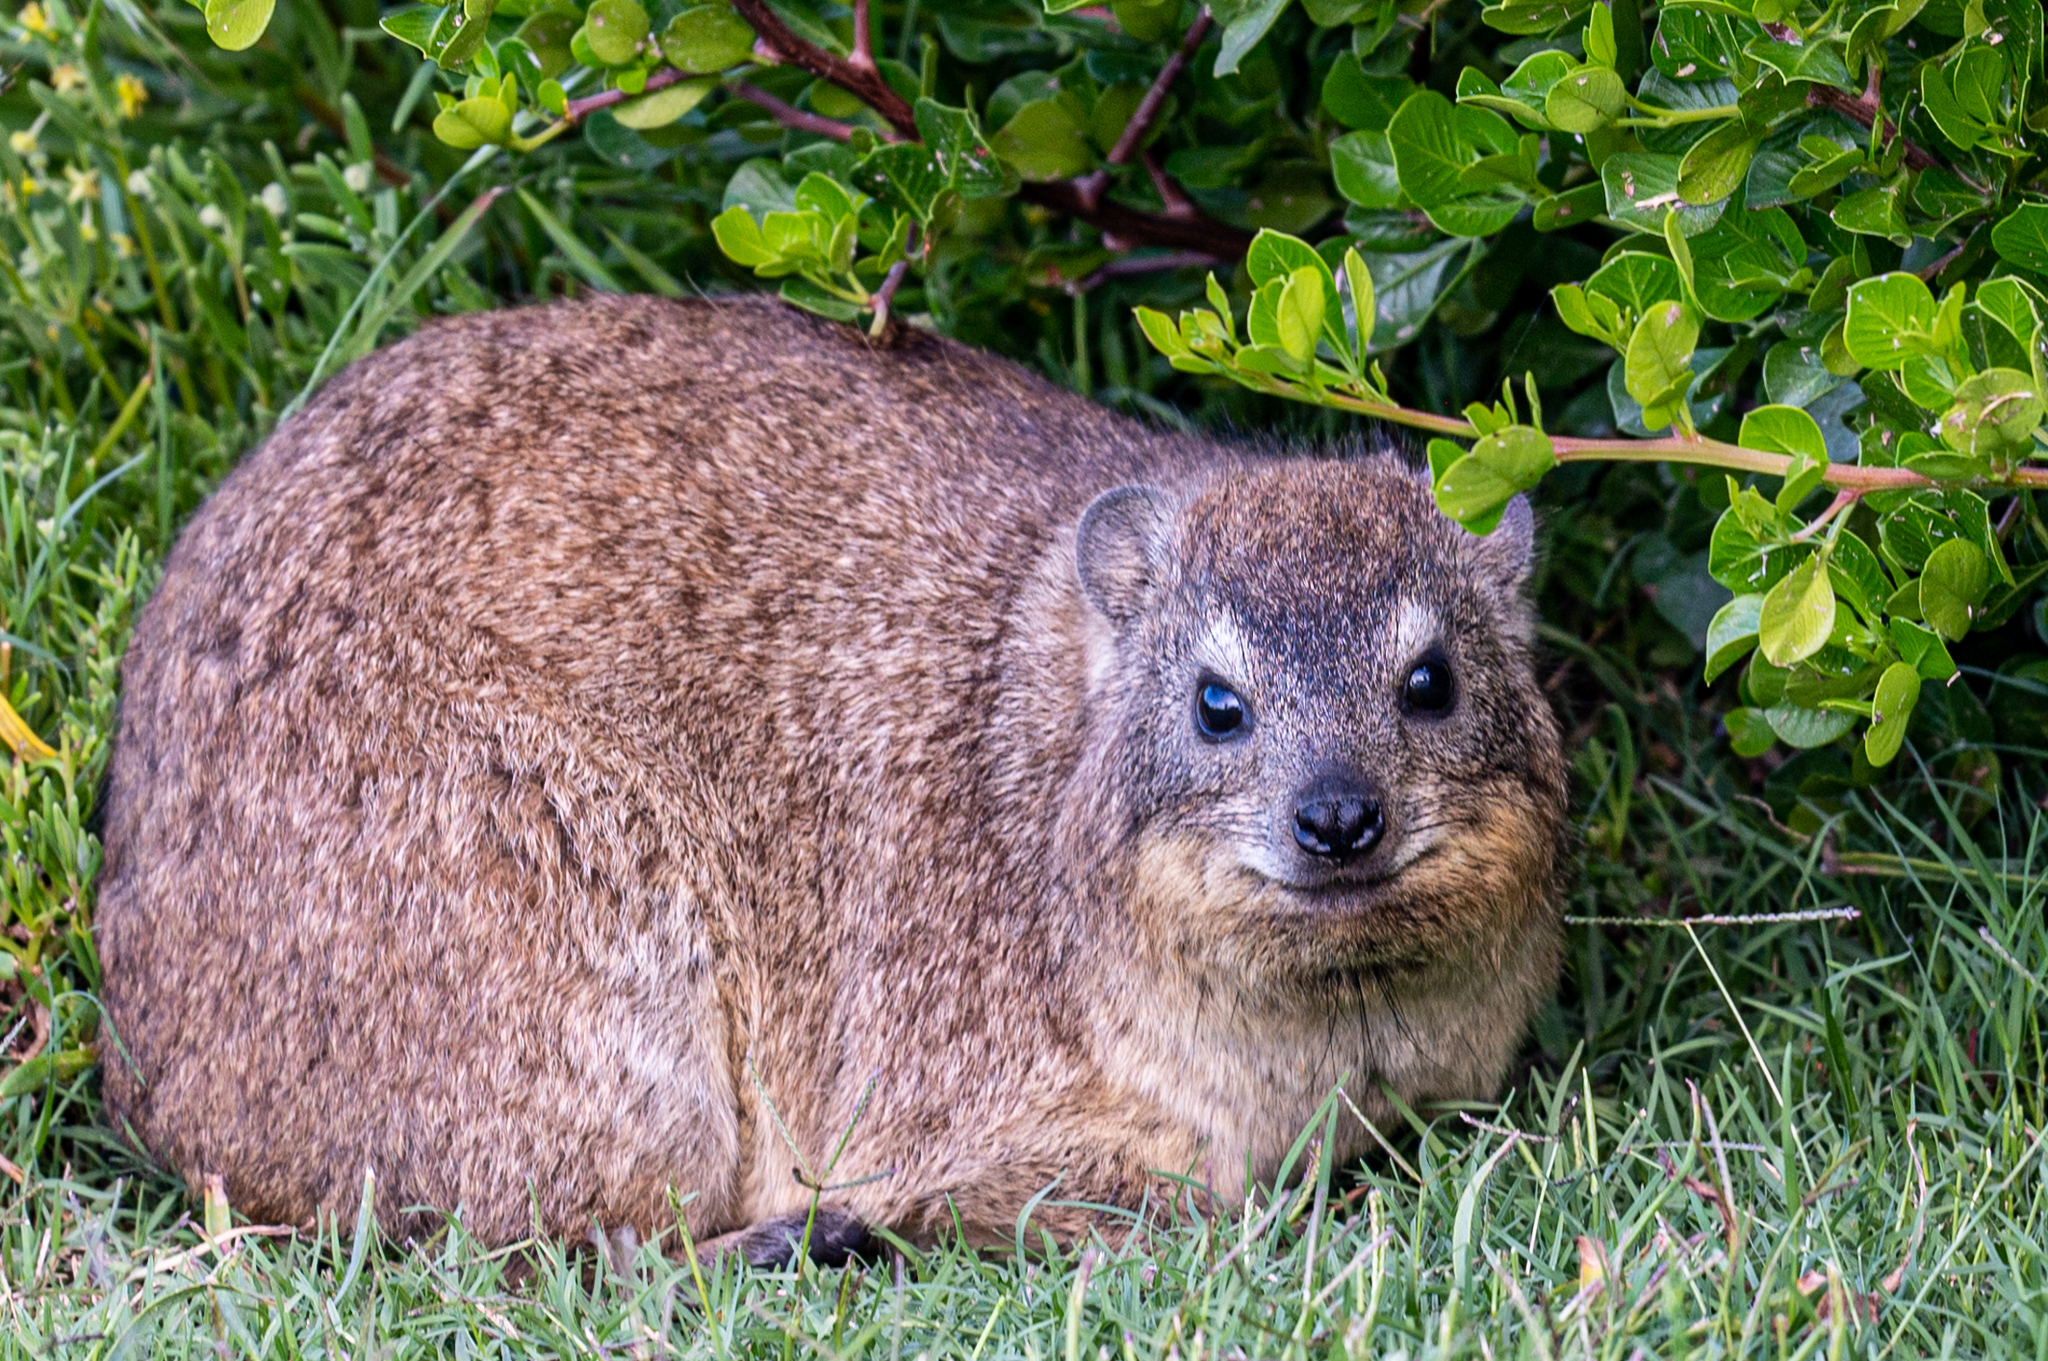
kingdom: Animalia
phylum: Chordata
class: Mammalia
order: Hyracoidea
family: Procaviidae
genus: Procavia
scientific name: Procavia capensis
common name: Rock hyrax
